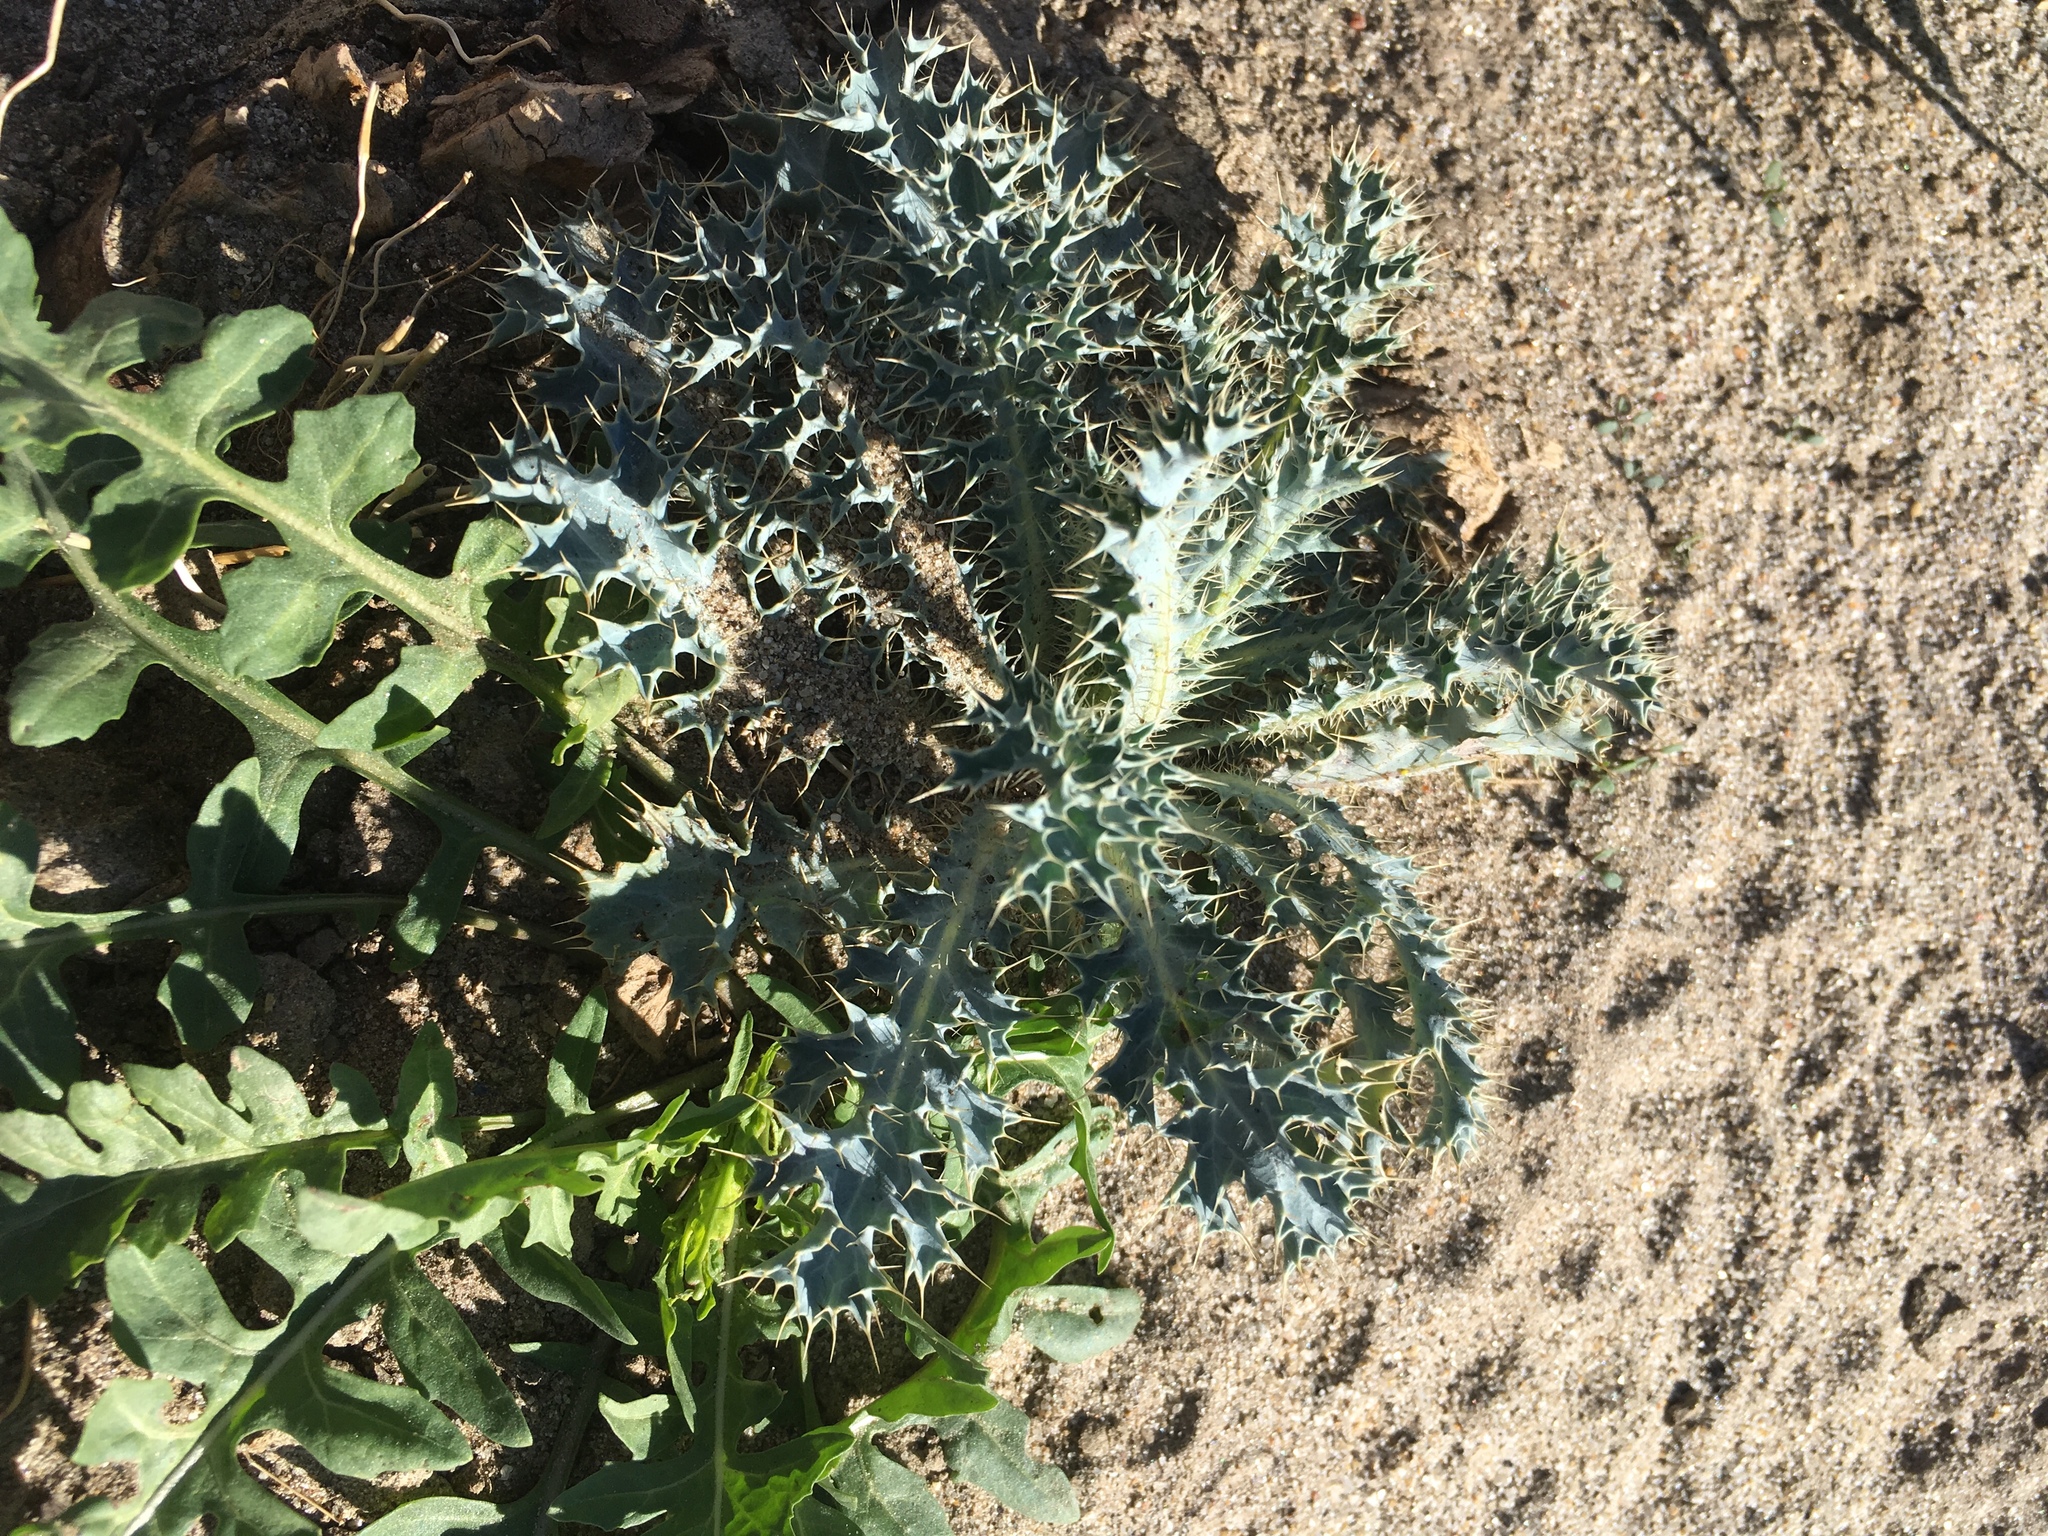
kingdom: Plantae
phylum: Tracheophyta
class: Magnoliopsida
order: Ranunculales
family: Papaveraceae
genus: Argemone
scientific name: Argemone munita
